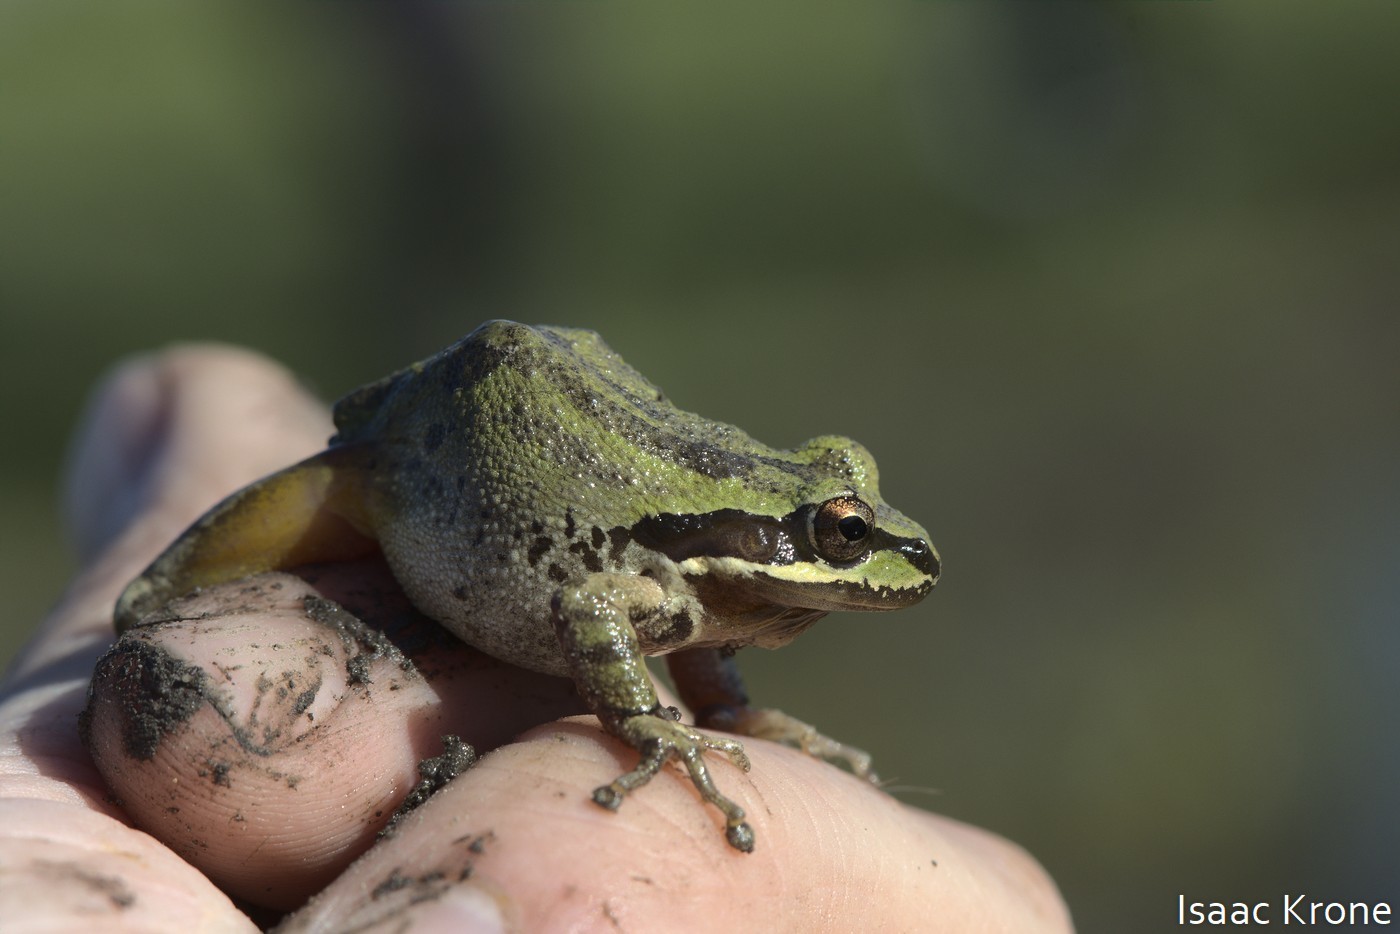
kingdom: Animalia
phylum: Chordata
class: Amphibia
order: Anura
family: Hylidae
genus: Pseudacris
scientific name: Pseudacris regilla
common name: Pacific chorus frog
